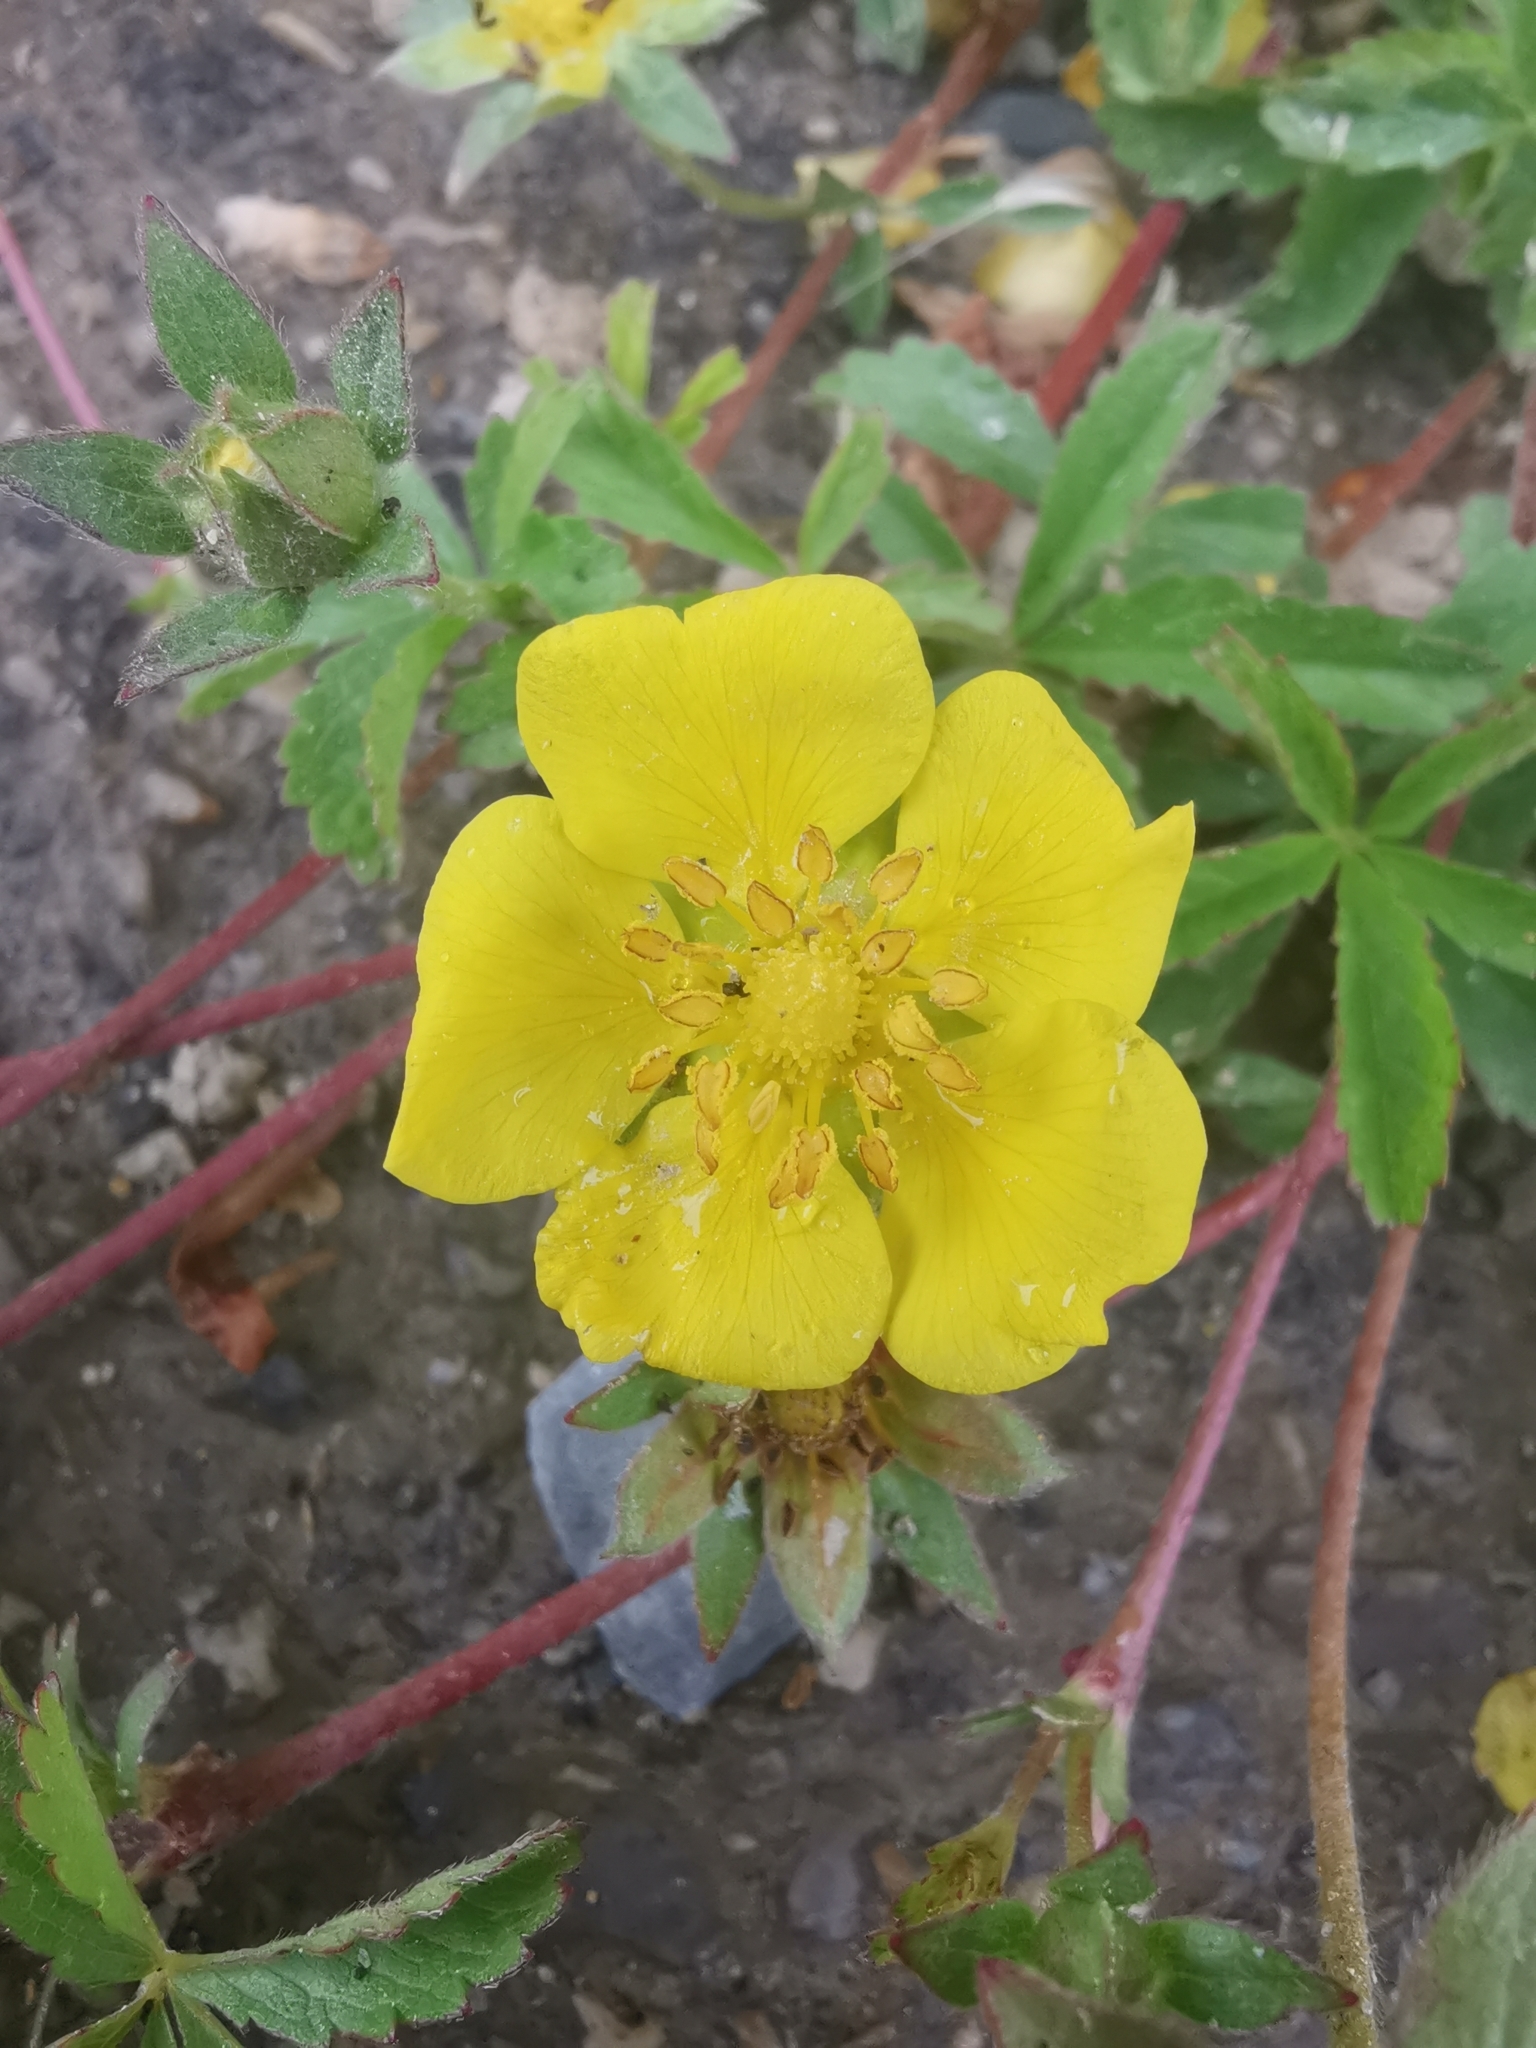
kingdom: Plantae
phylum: Tracheophyta
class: Magnoliopsida
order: Rosales
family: Rosaceae
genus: Potentilla
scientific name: Potentilla reptans
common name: Creeping cinquefoil
